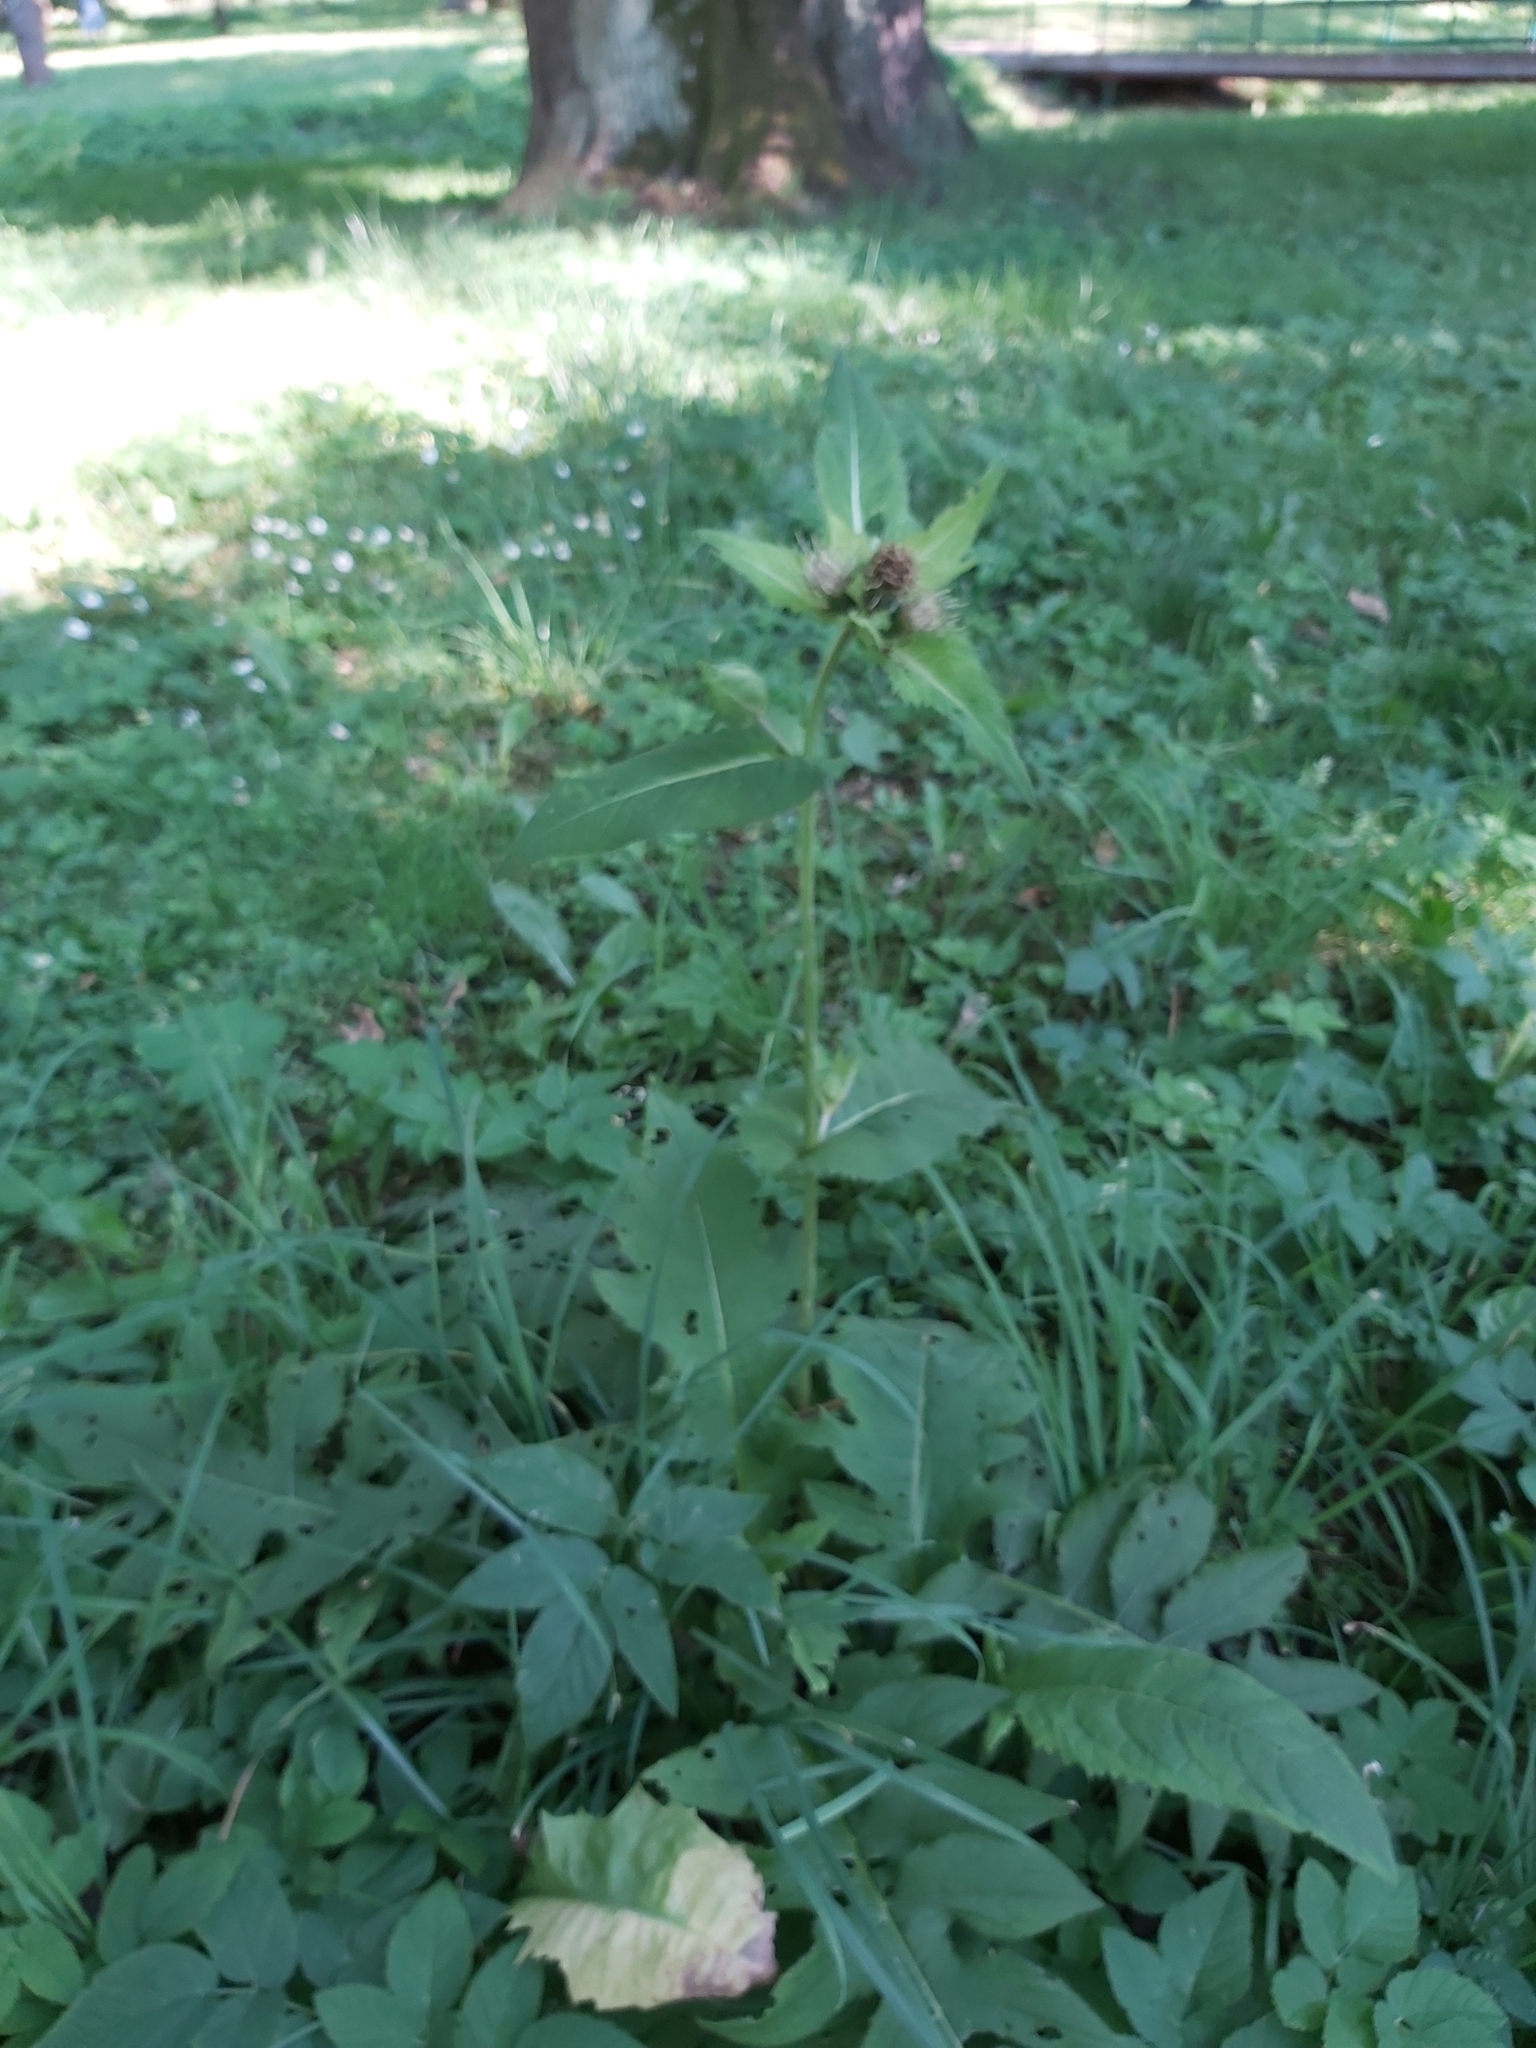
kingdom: Plantae
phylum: Tracheophyta
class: Magnoliopsida
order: Asterales
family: Asteraceae
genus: Cirsium
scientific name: Cirsium oleraceum
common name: Cabbage thistle
